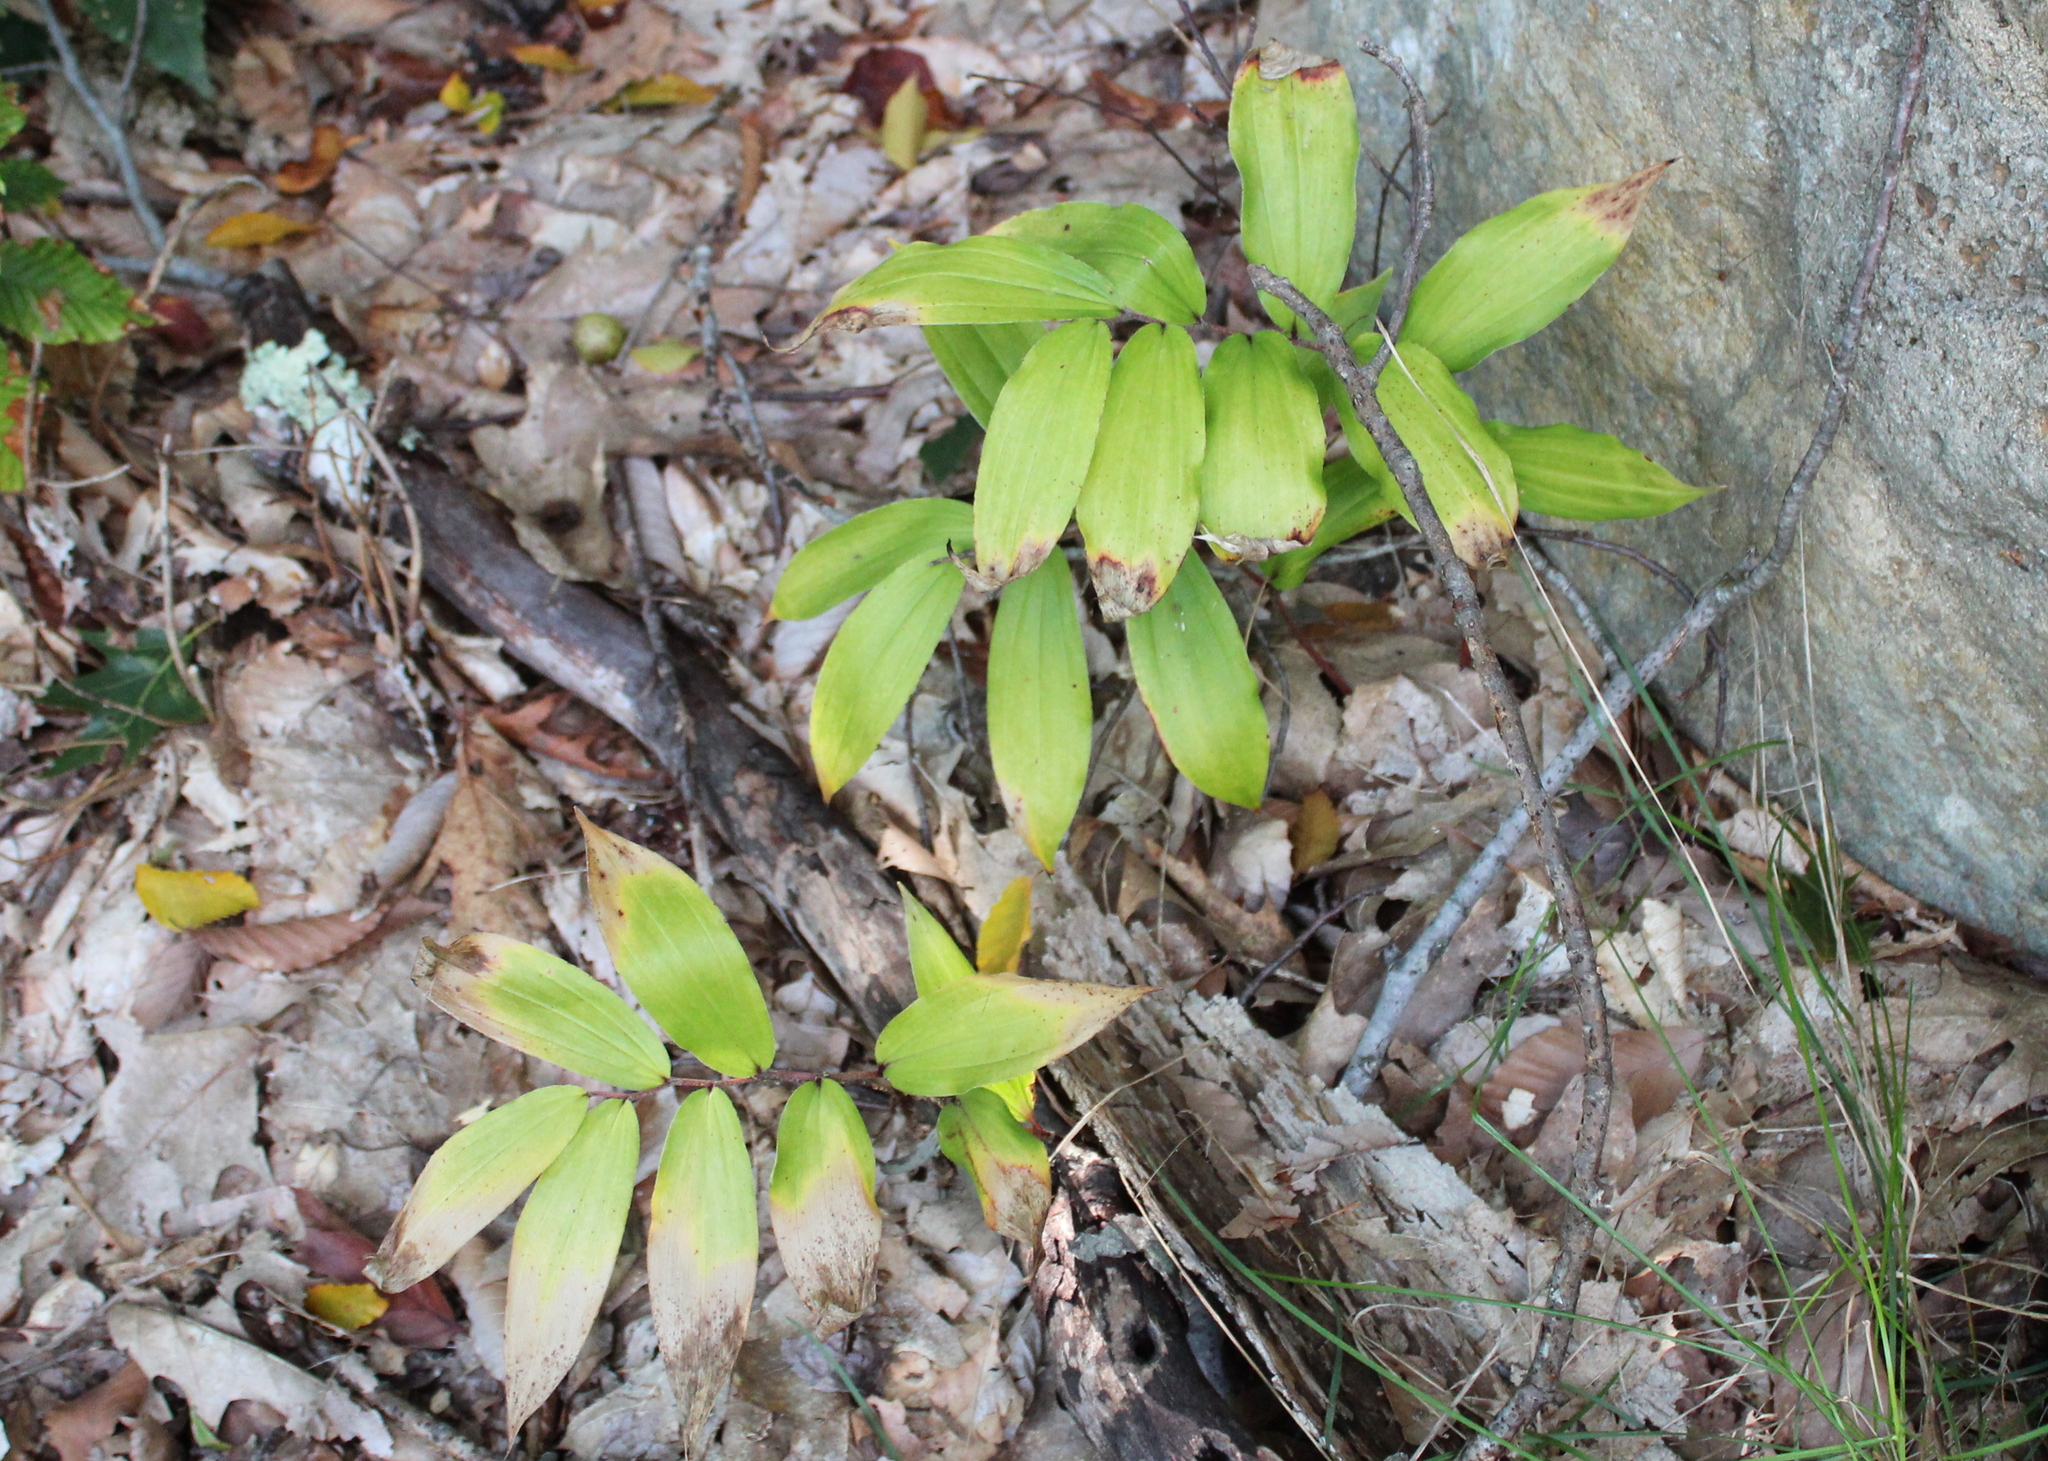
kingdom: Plantae
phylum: Tracheophyta
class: Liliopsida
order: Asparagales
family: Asparagaceae
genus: Maianthemum
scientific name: Maianthemum racemosum
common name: False spikenard
